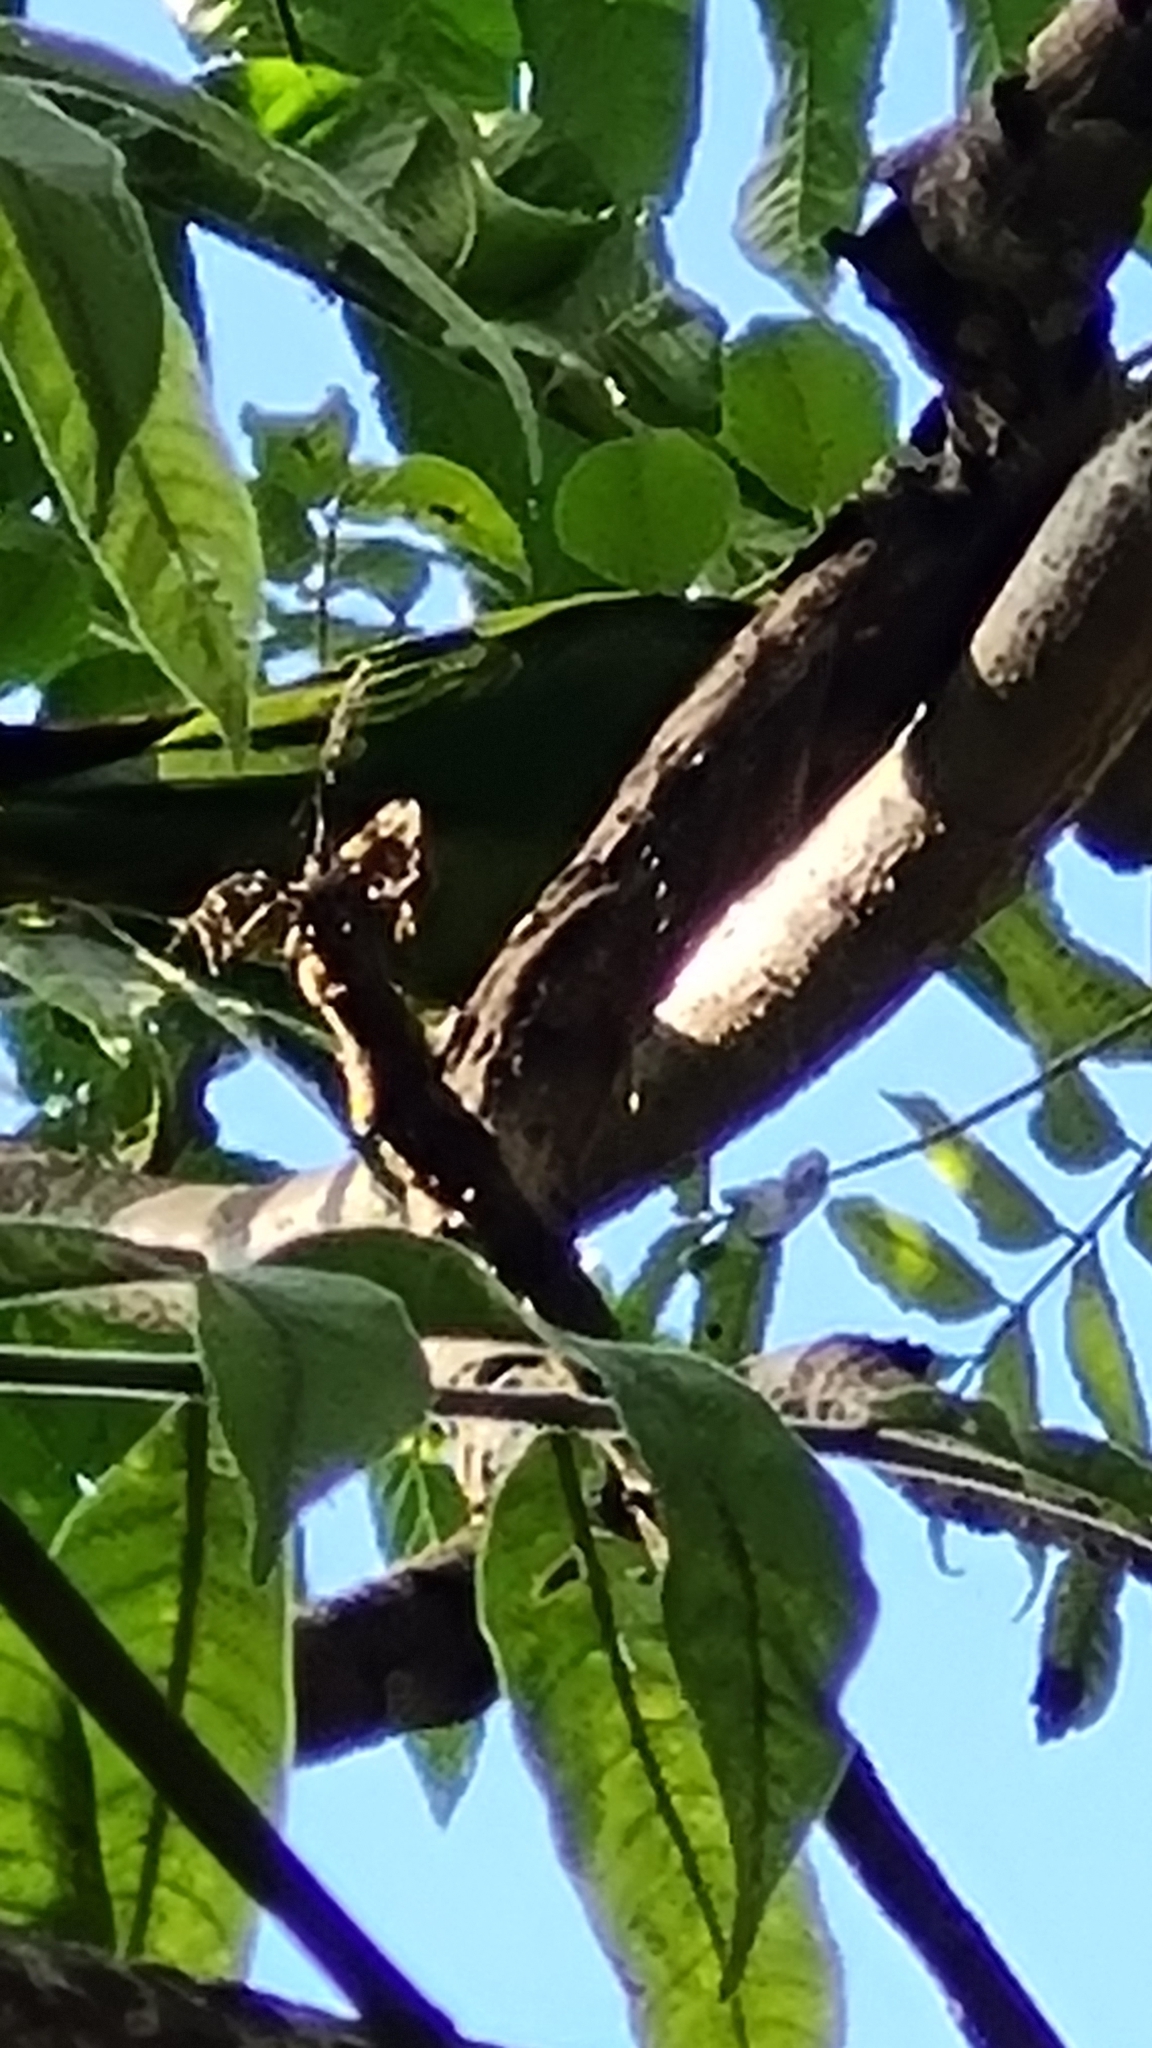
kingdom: Animalia
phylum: Chordata
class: Aves
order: Psittaciformes
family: Psittacidae
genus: Aratinga
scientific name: Aratinga leucophthalma
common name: White-eyed parakeet
